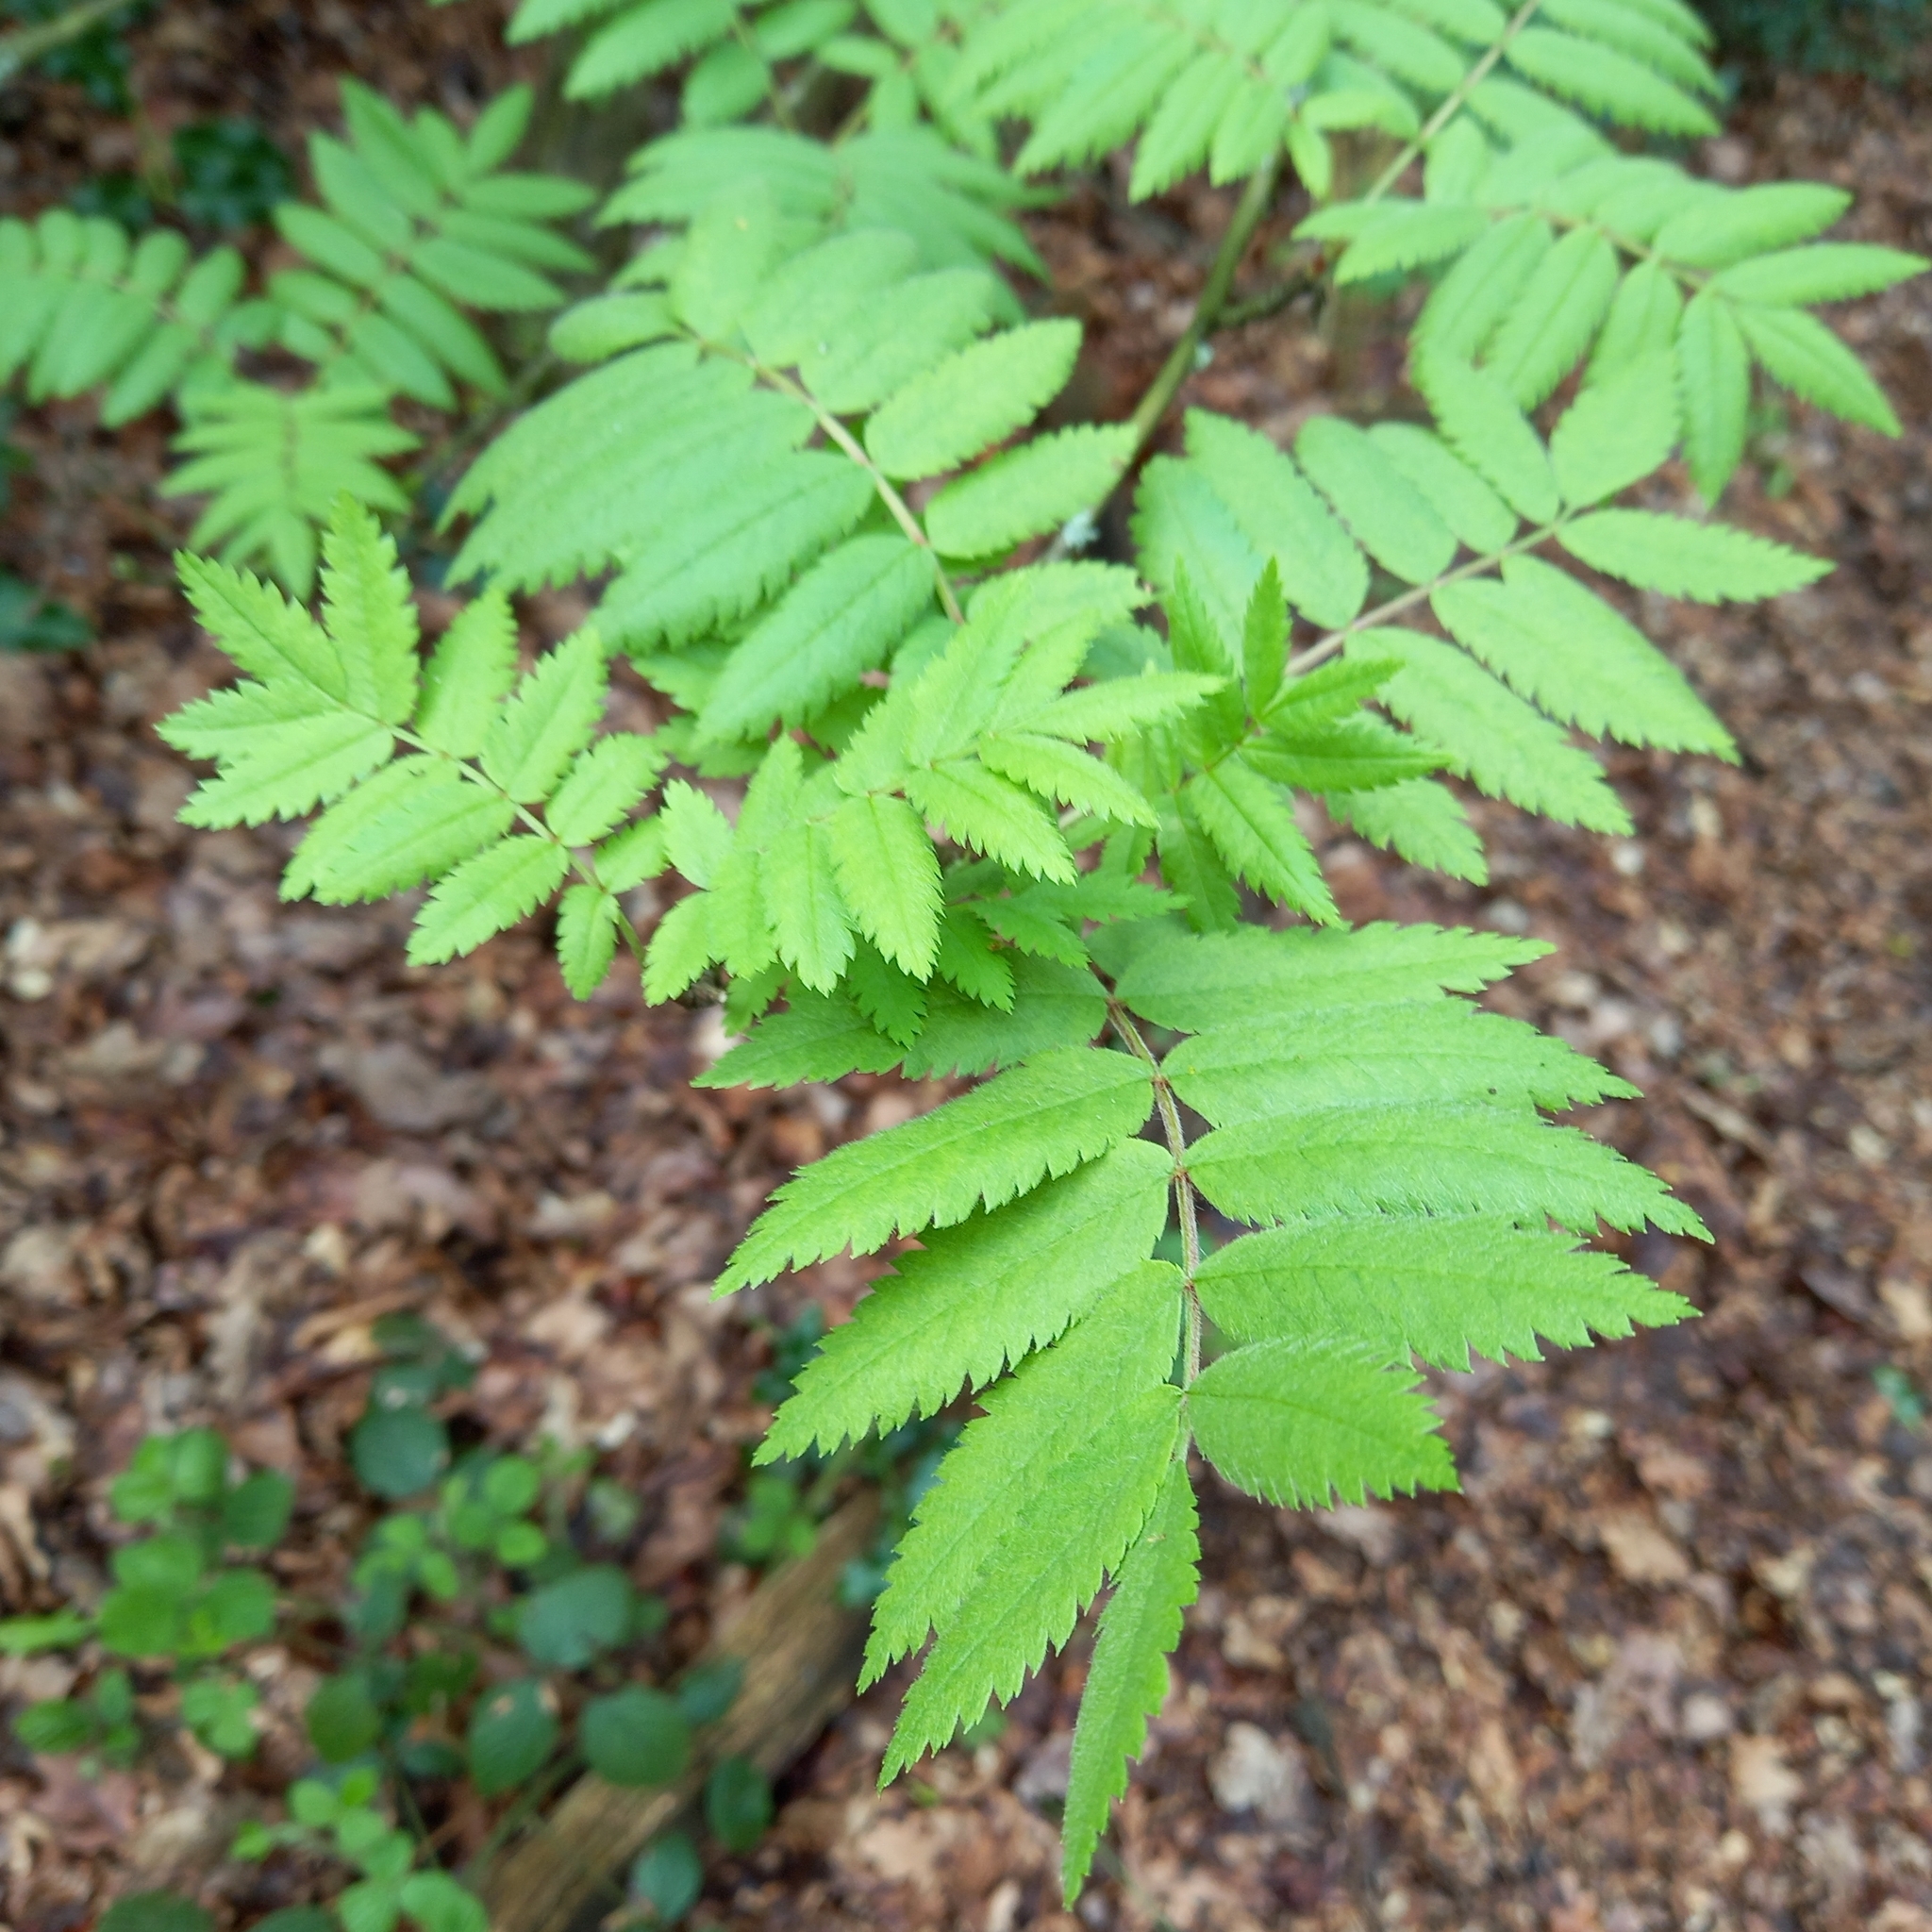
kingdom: Plantae
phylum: Tracheophyta
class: Magnoliopsida
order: Rosales
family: Rosaceae
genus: Sorbus
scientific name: Sorbus aucuparia
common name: Rowan
